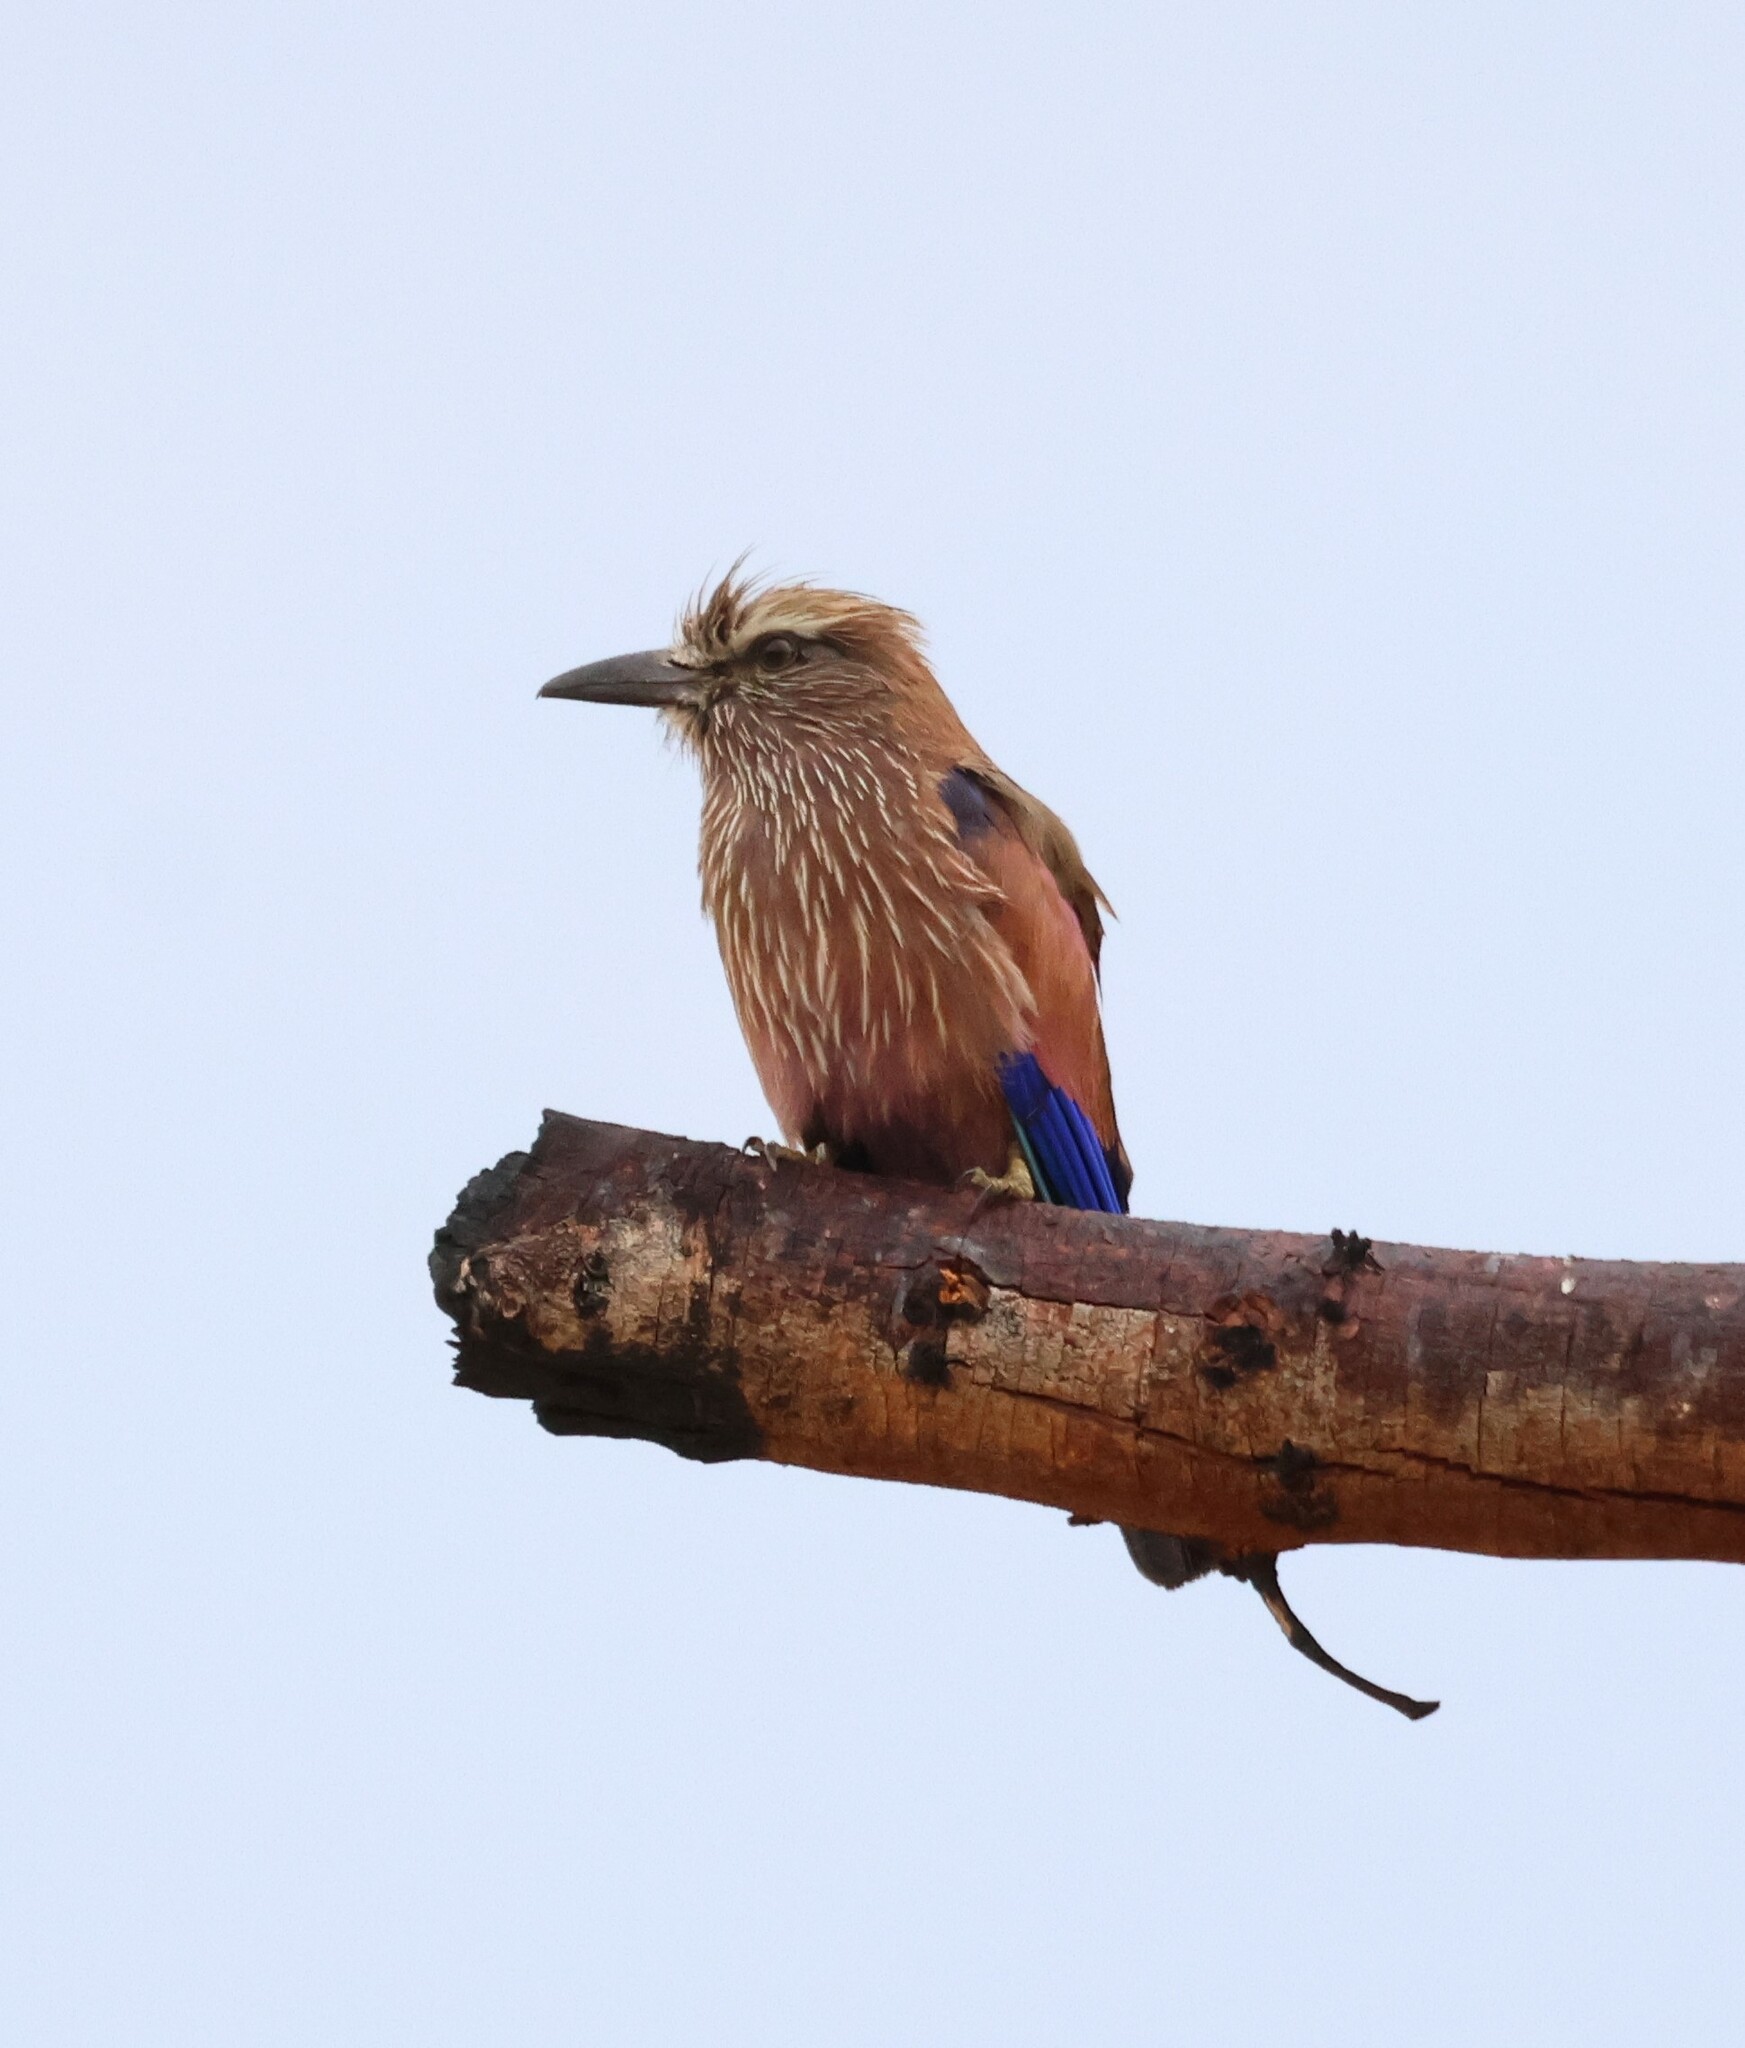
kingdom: Animalia
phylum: Chordata
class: Aves
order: Coraciiformes
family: Coraciidae
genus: Coracias
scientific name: Coracias naevius
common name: Purple roller
